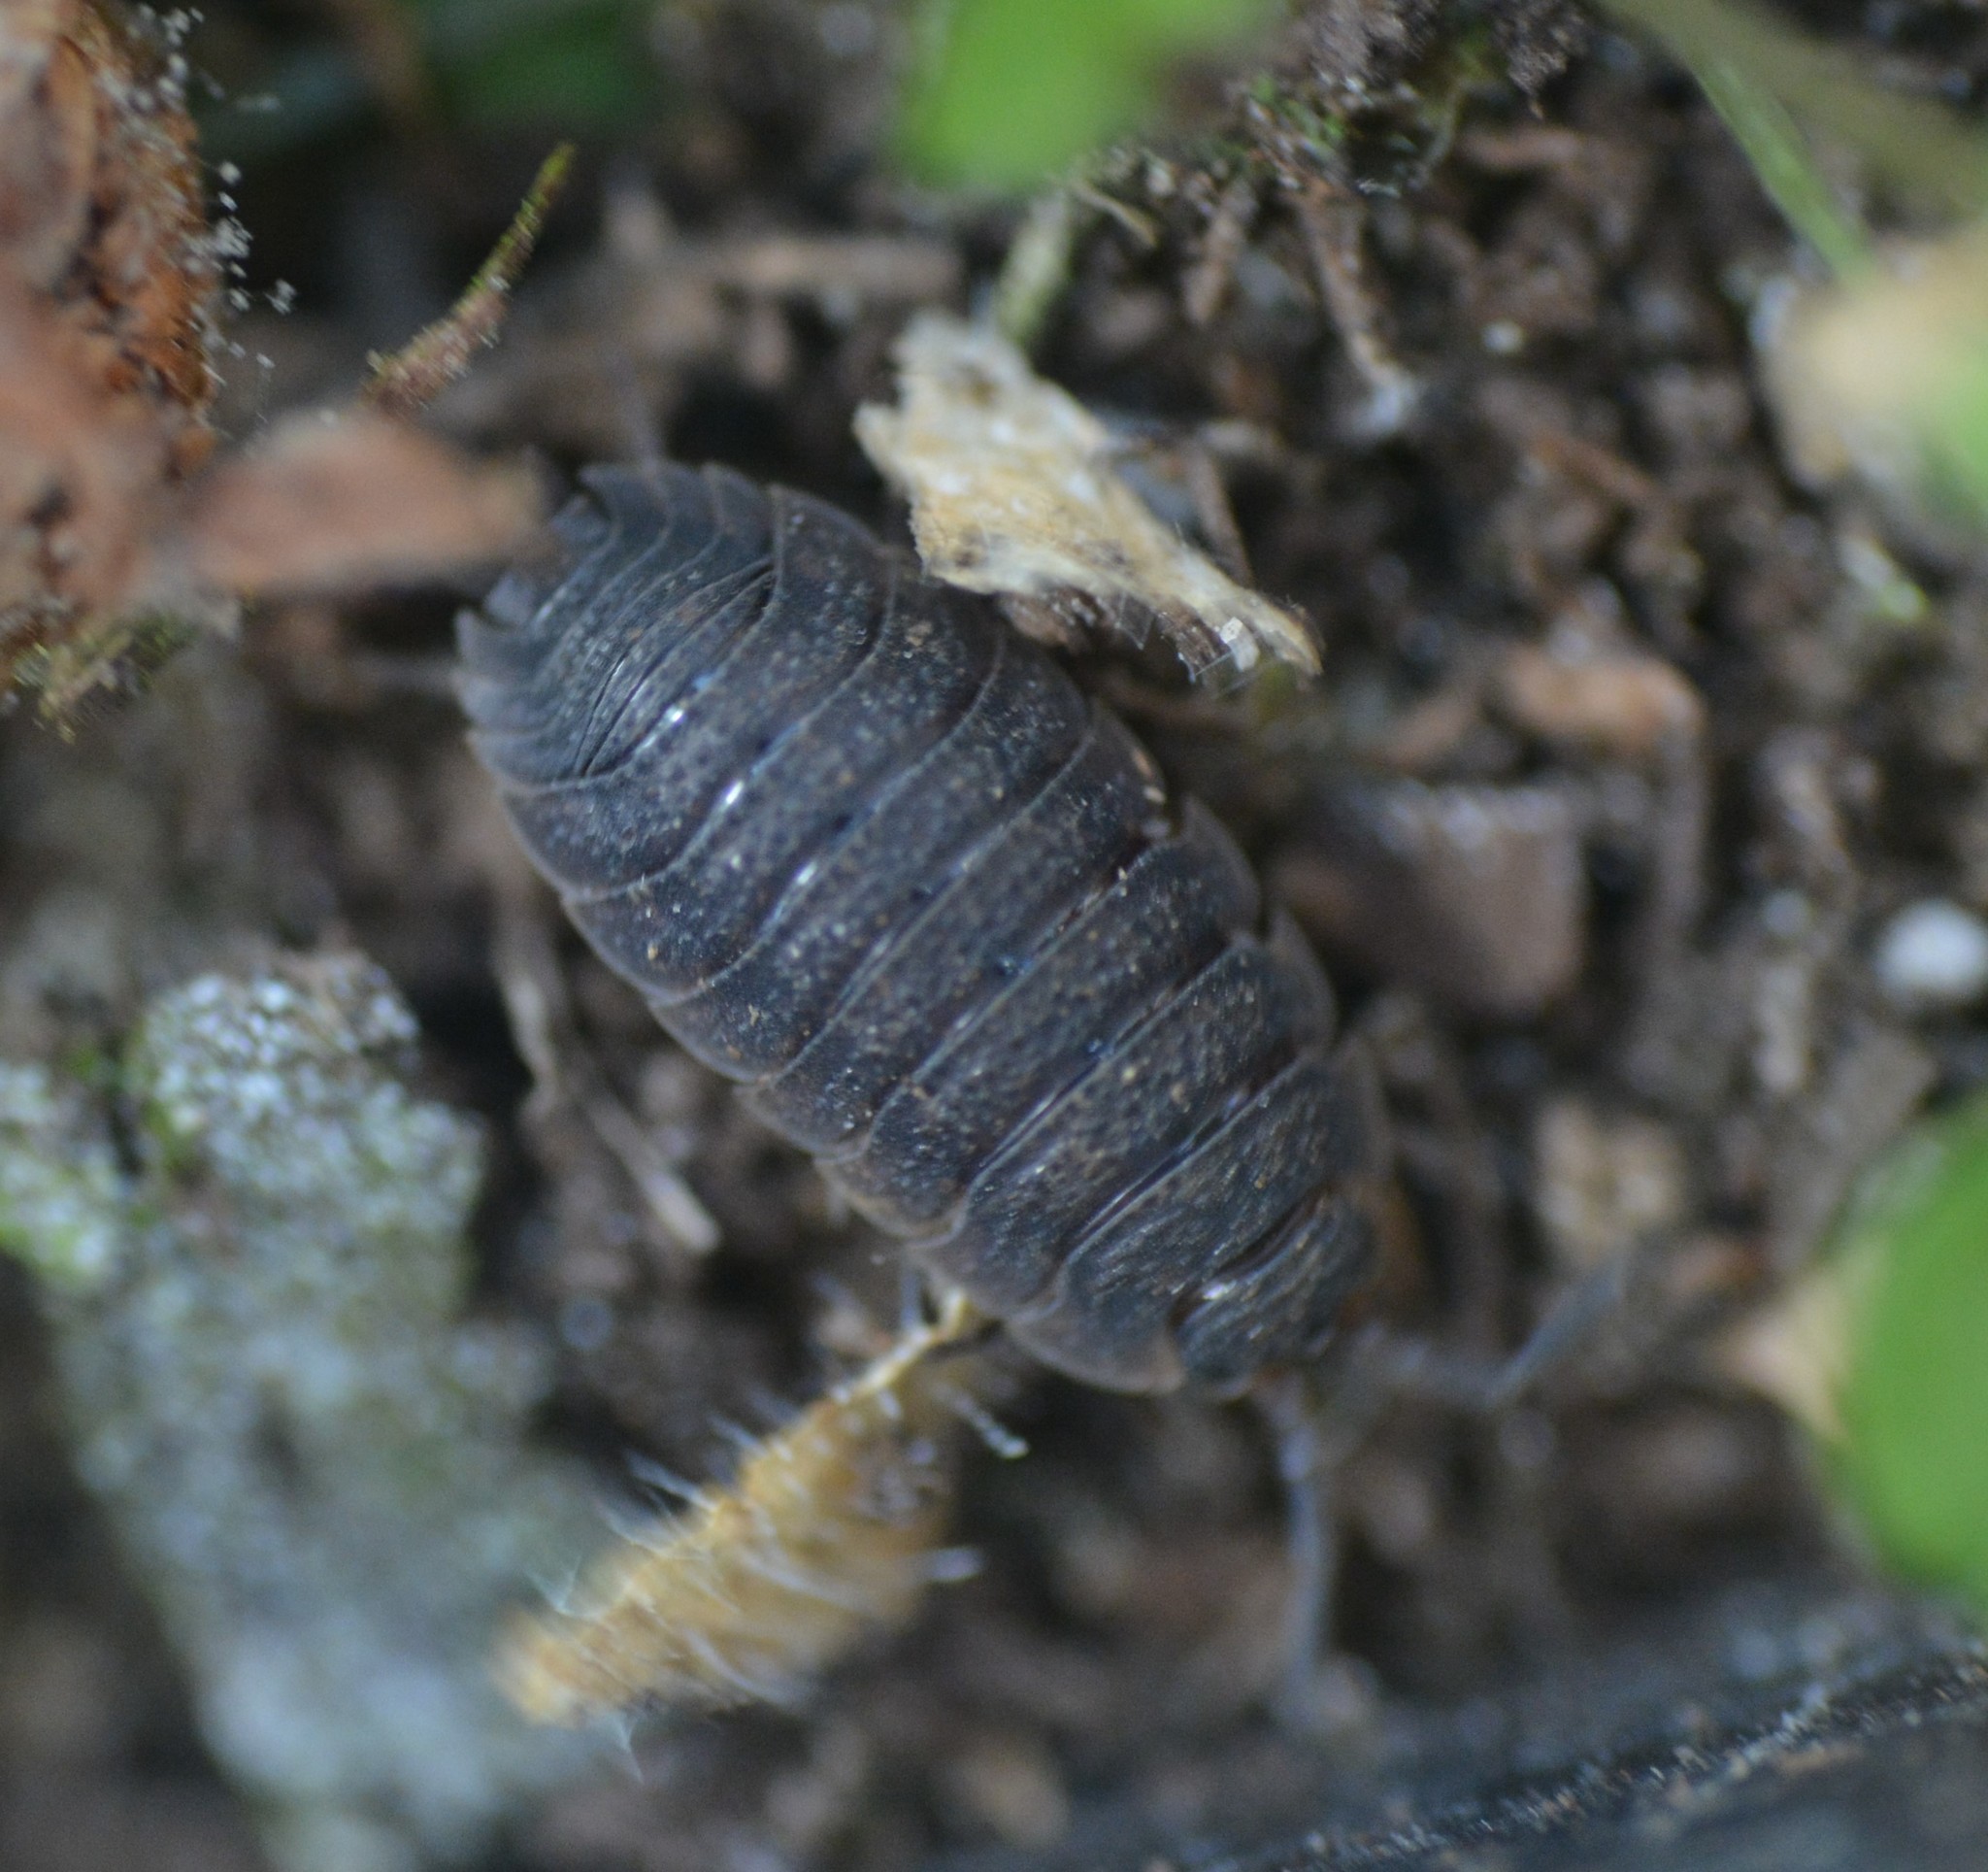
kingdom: Animalia
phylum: Arthropoda
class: Malacostraca
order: Isopoda
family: Porcellionidae
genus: Porcellio
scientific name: Porcellio scaber
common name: Common rough woodlouse
